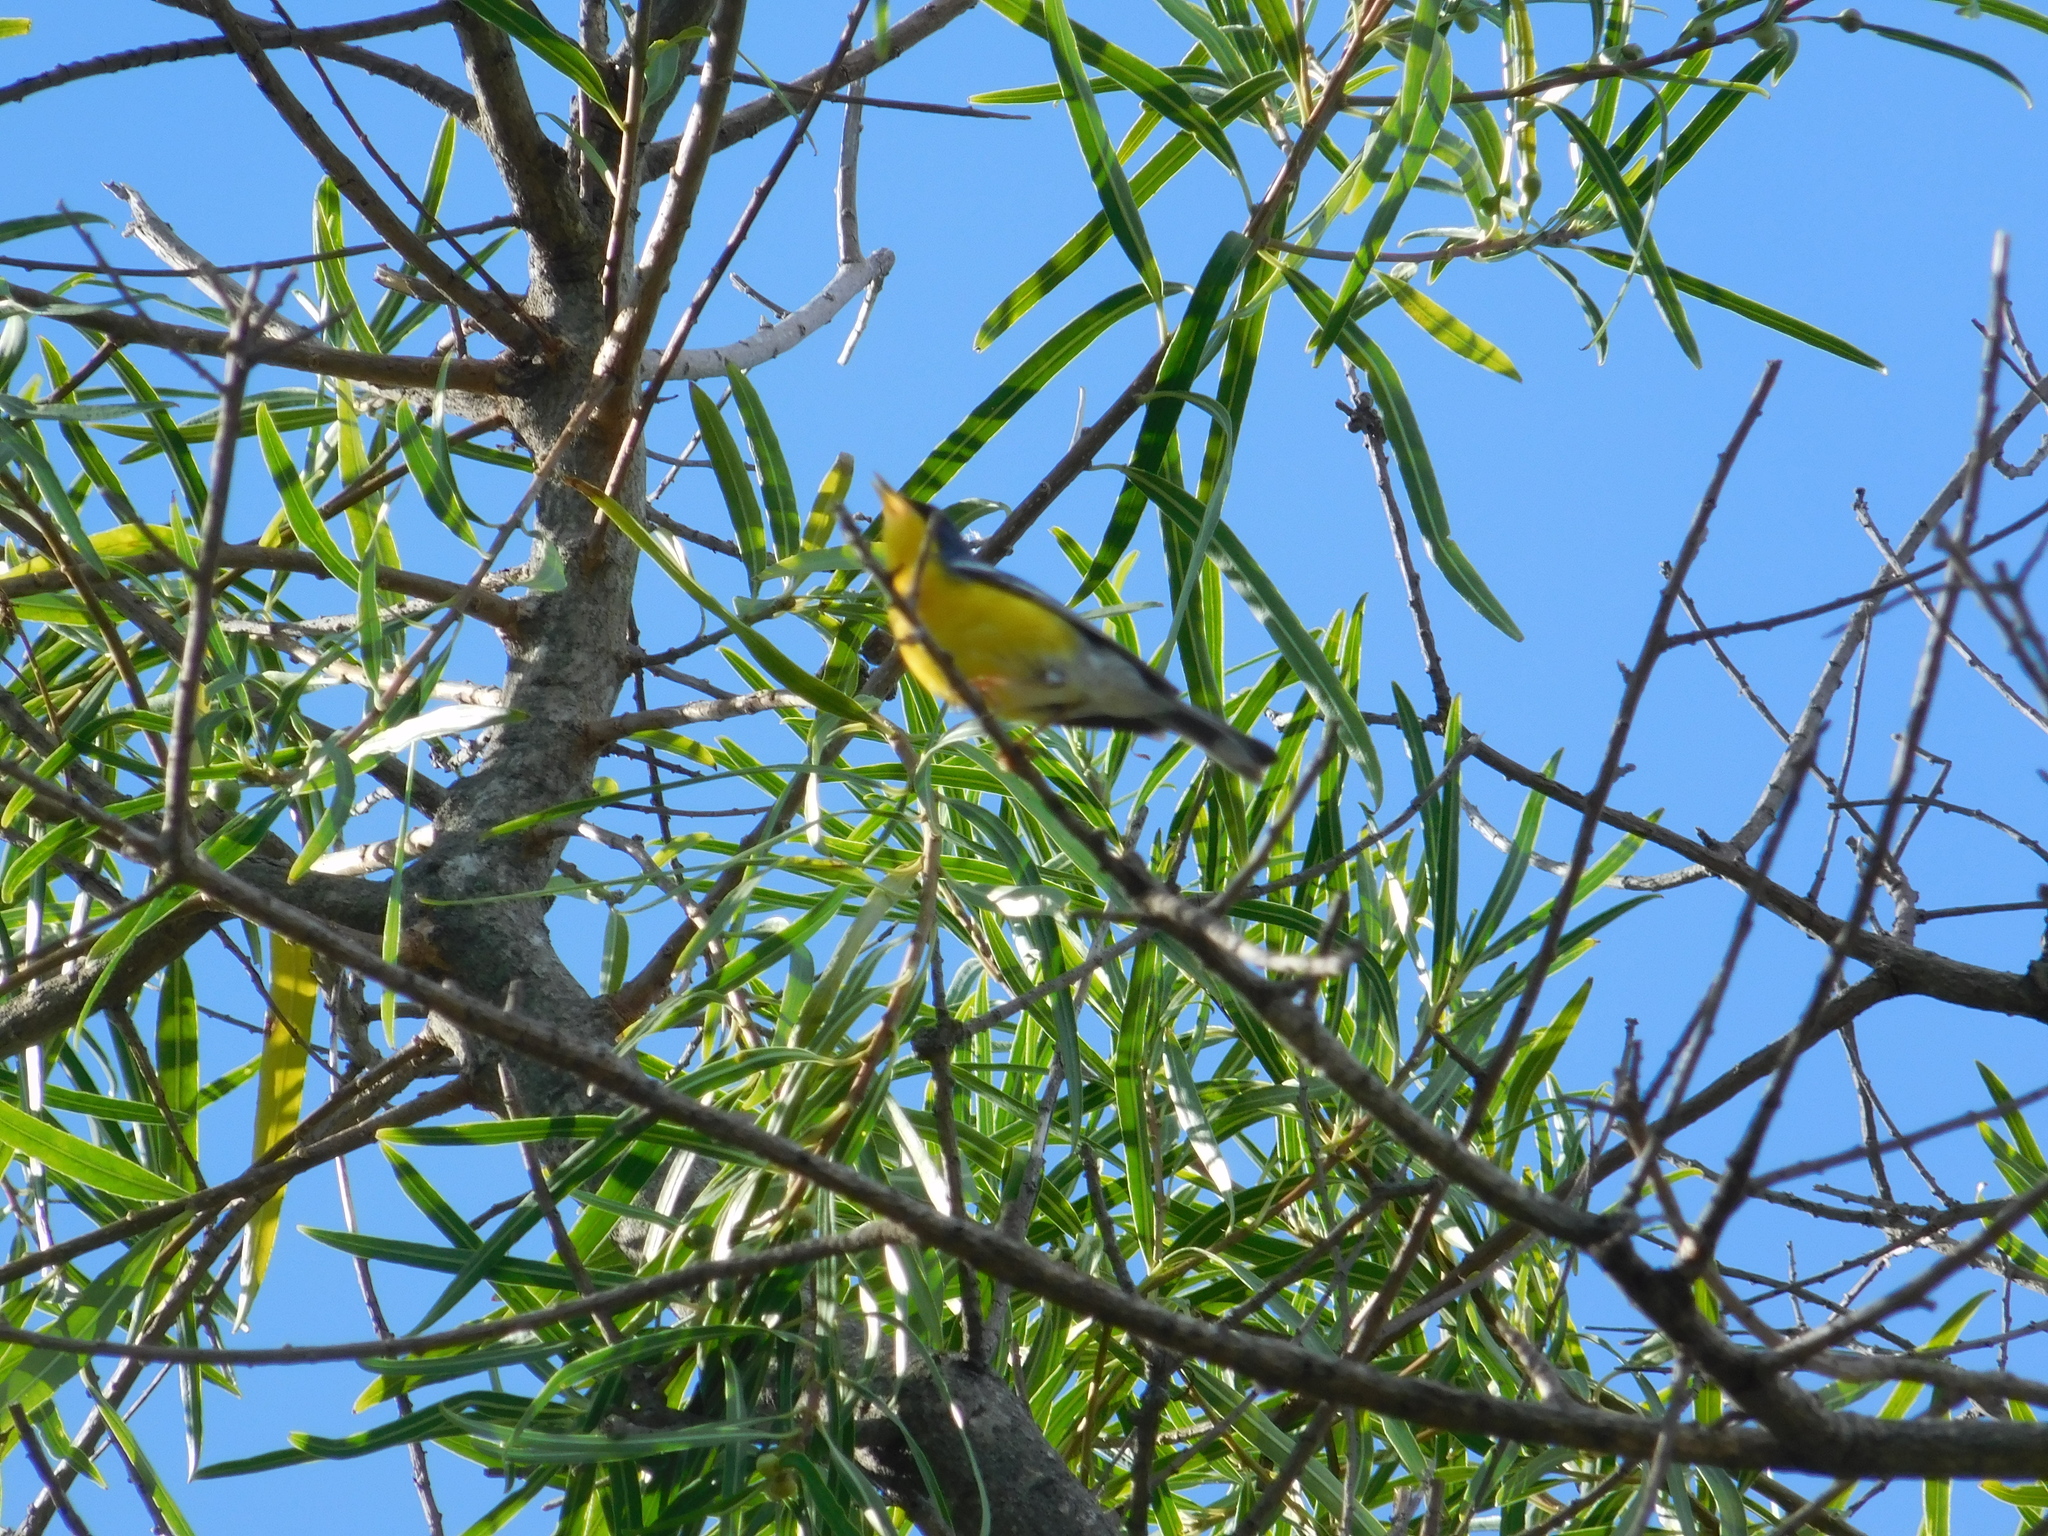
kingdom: Animalia
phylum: Chordata
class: Aves
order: Passeriformes
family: Parulidae
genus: Setophaga
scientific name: Setophaga pitiayumi
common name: Tropical parula
